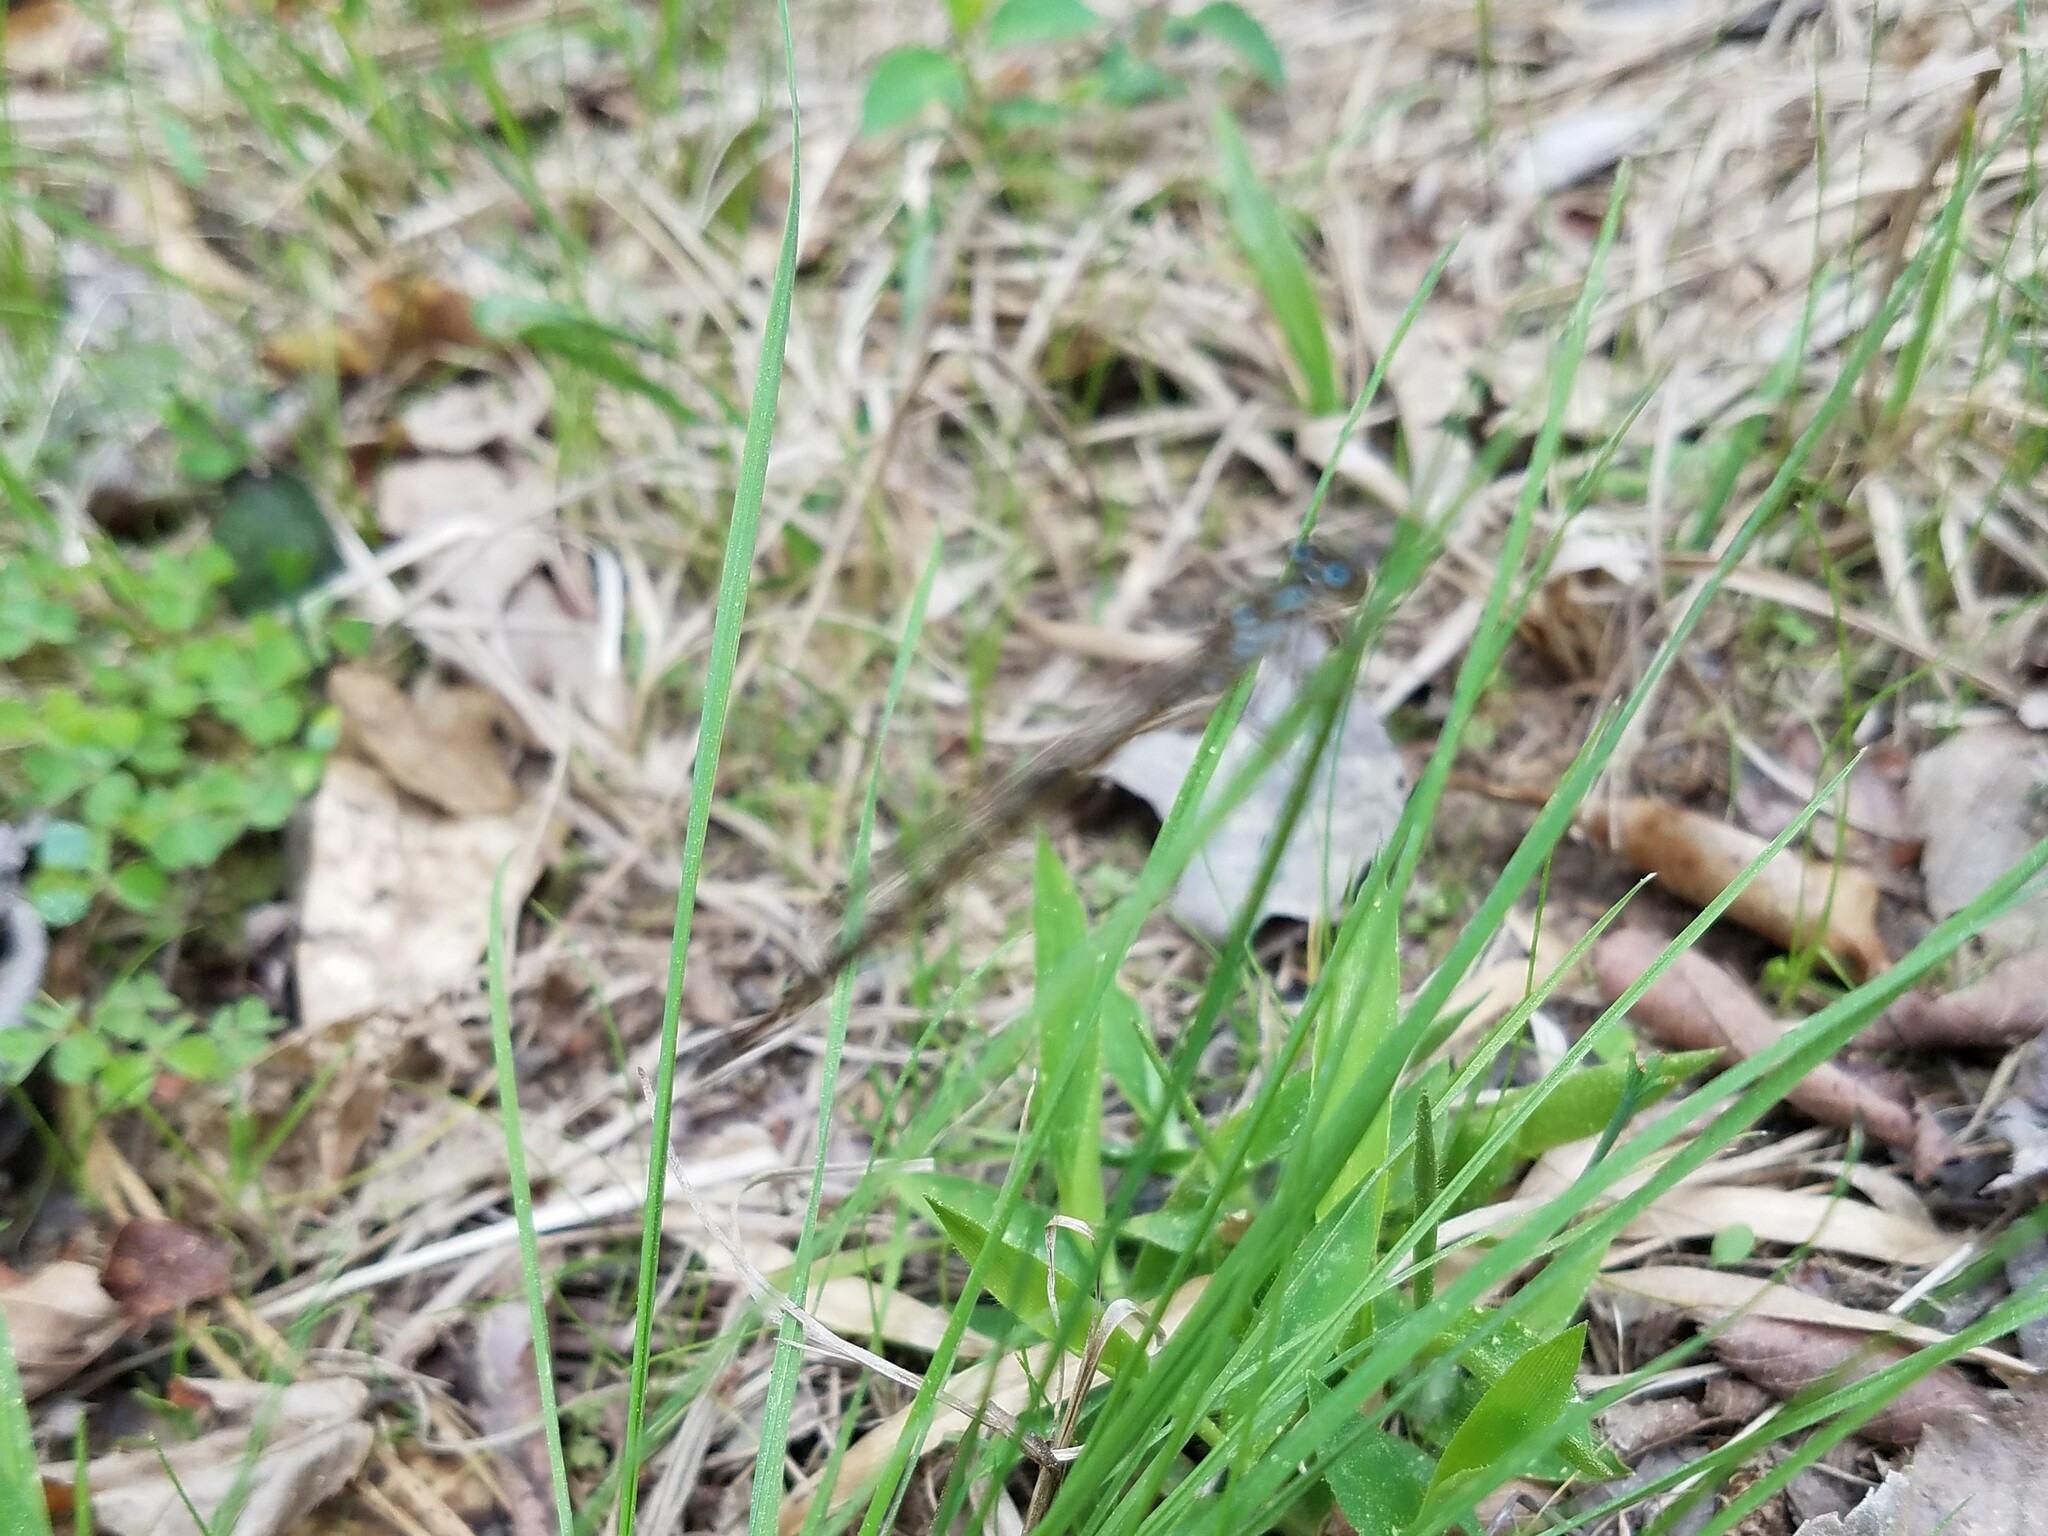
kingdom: Animalia
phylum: Arthropoda
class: Insecta
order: Odonata
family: Coenagrionidae
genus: Ischnura
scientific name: Ischnura posita
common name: Fragile forktail
